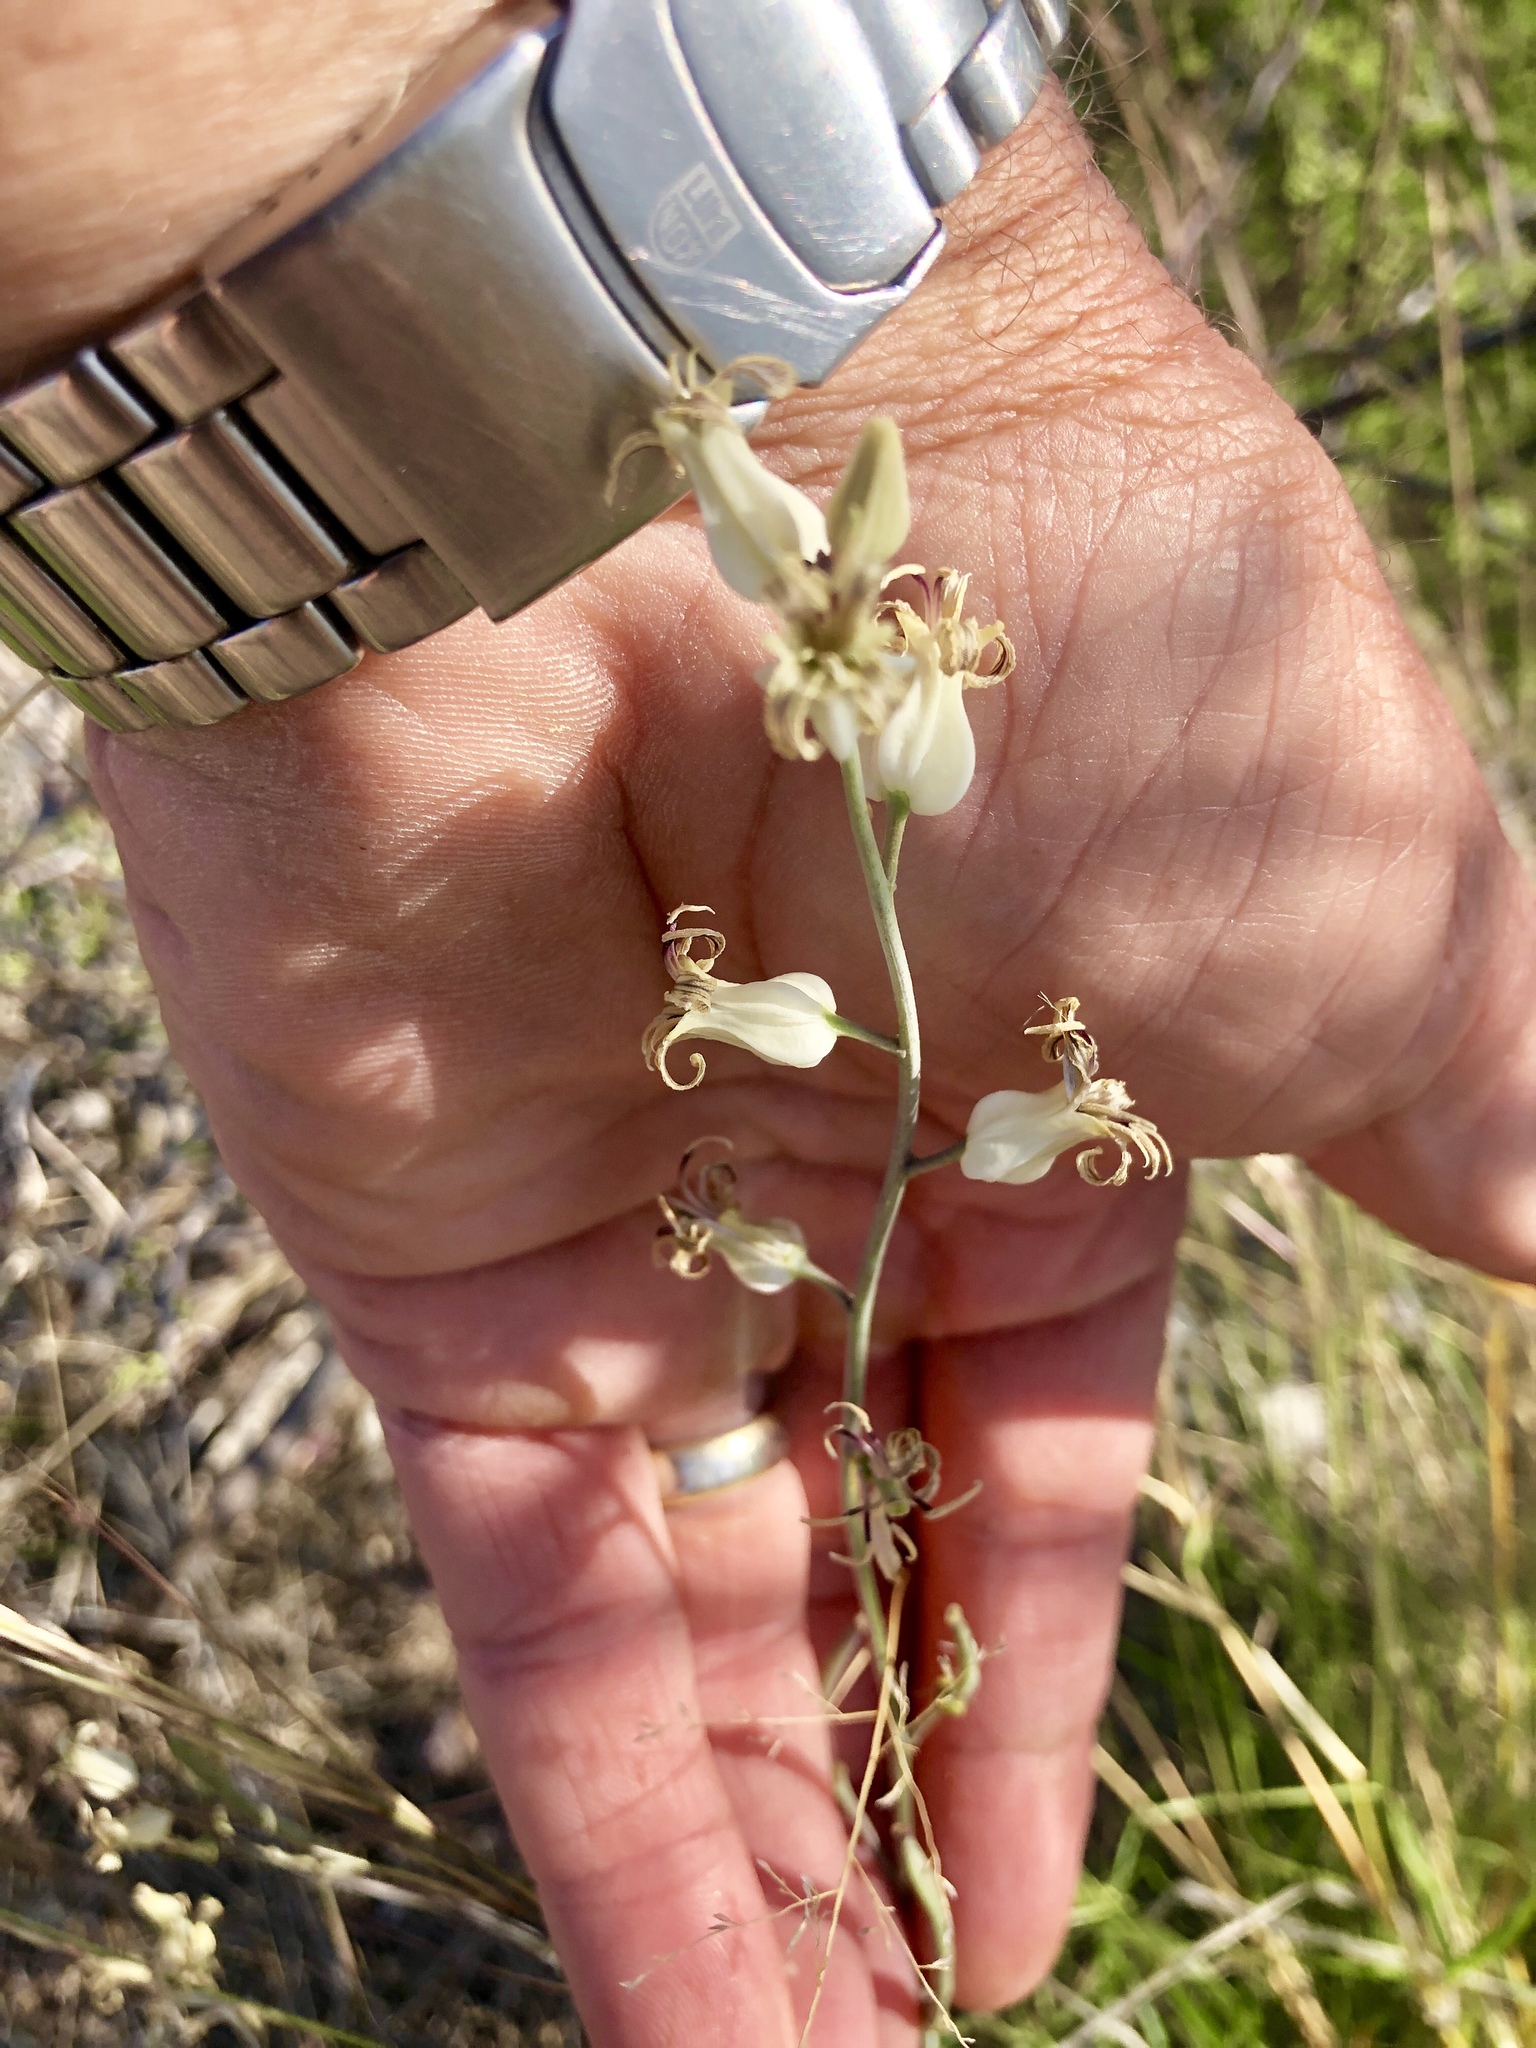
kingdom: Plantae
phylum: Tracheophyta
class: Magnoliopsida
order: Brassicales
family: Brassicaceae
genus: Streptanthus
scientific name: Streptanthus carinatus
